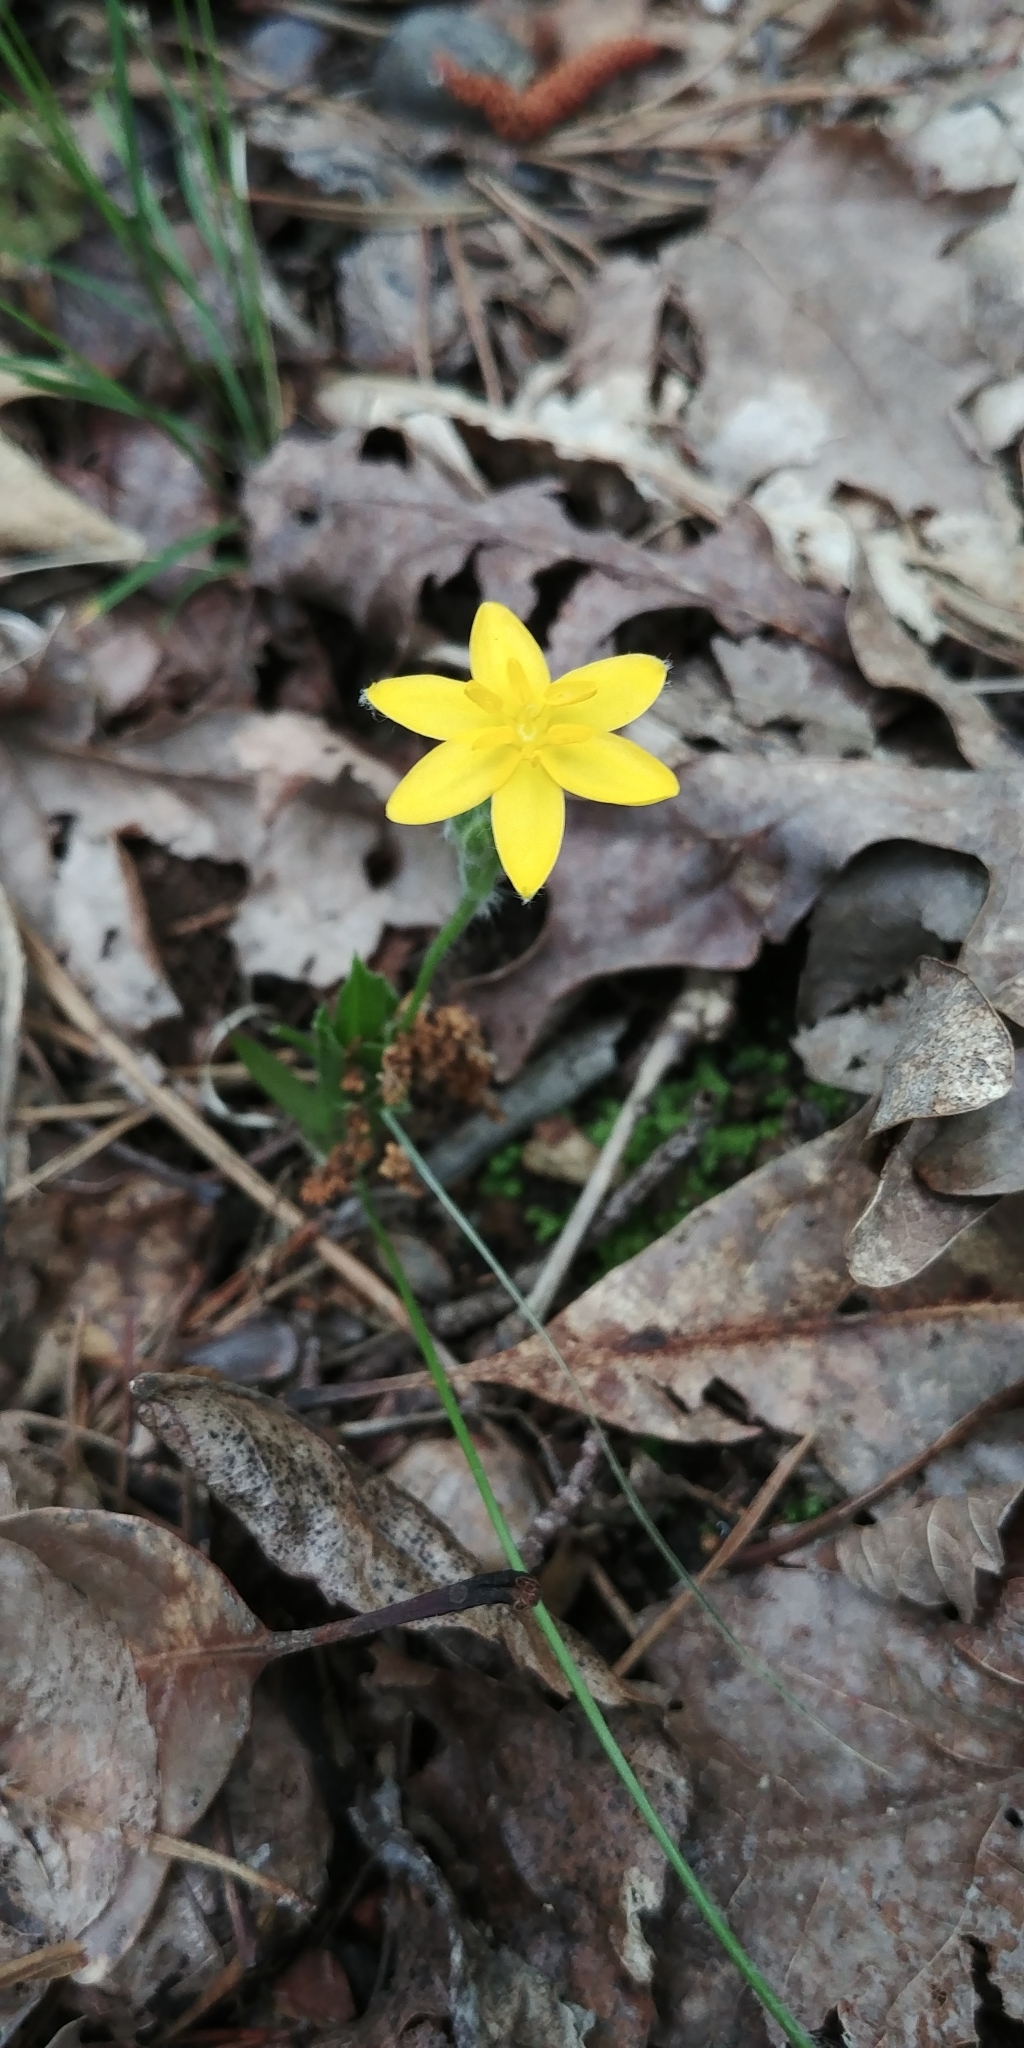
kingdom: Plantae
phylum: Tracheophyta
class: Liliopsida
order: Asparagales
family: Hypoxidaceae
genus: Hypoxis
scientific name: Hypoxis hirsuta
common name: Common goldstar
